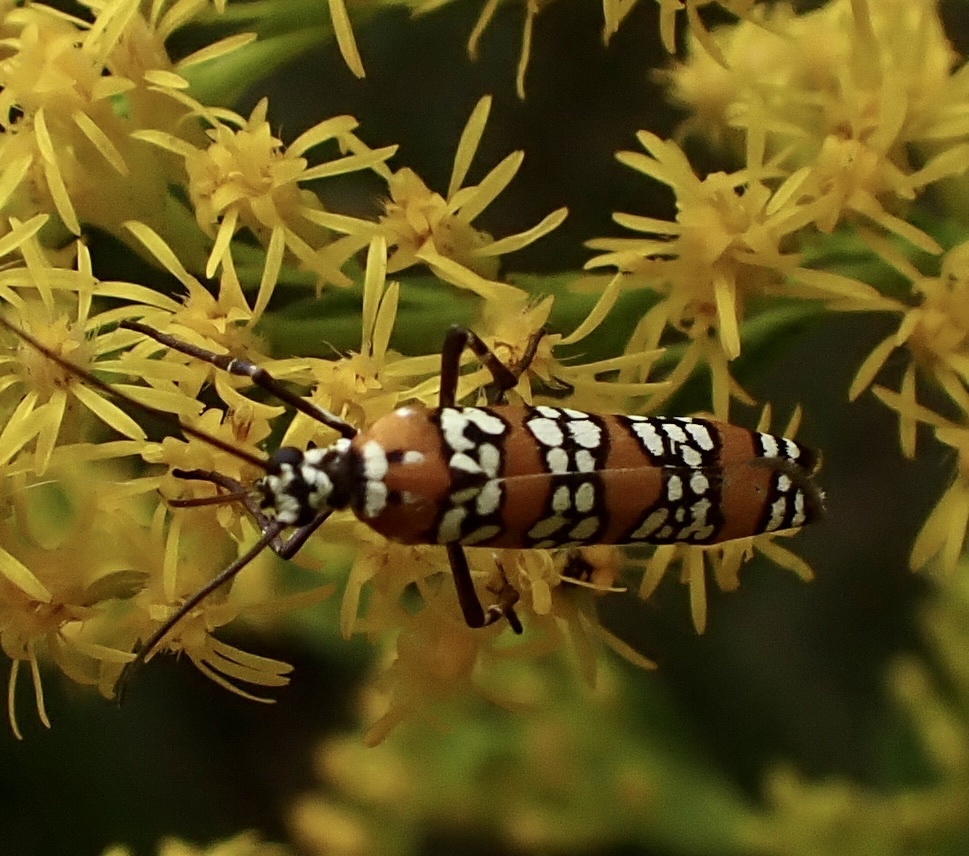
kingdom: Animalia
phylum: Arthropoda
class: Insecta
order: Lepidoptera
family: Attevidae
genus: Atteva
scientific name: Atteva punctella
